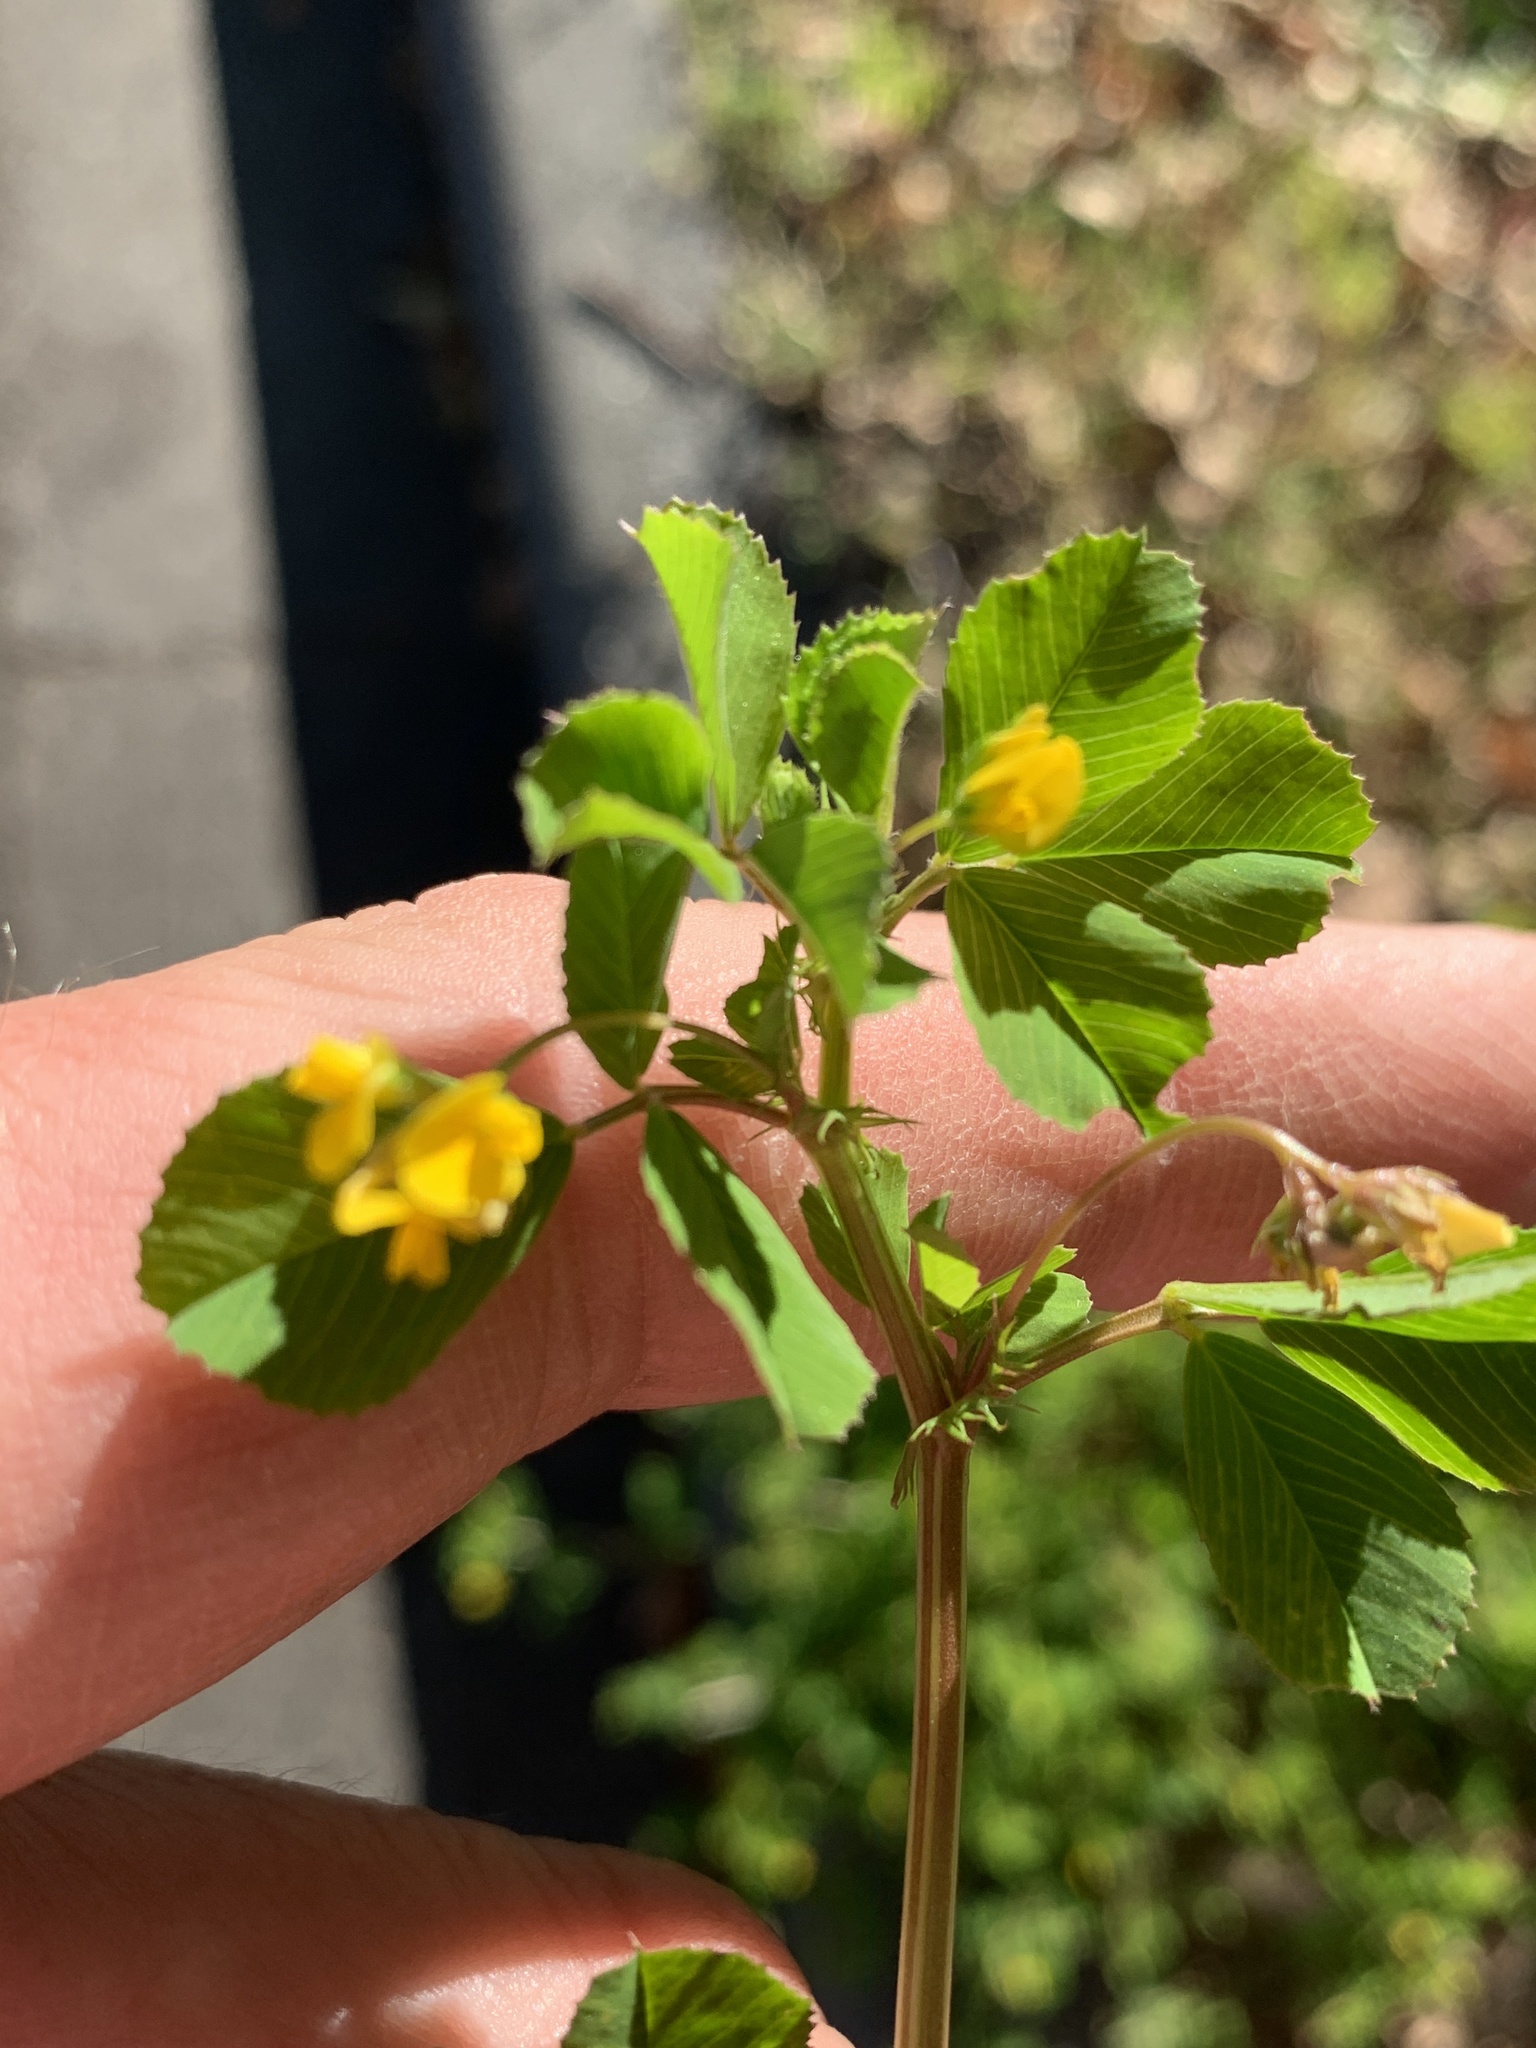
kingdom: Plantae
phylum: Tracheophyta
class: Magnoliopsida
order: Fabales
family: Fabaceae
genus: Medicago
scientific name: Medicago polymorpha
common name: Burclover
